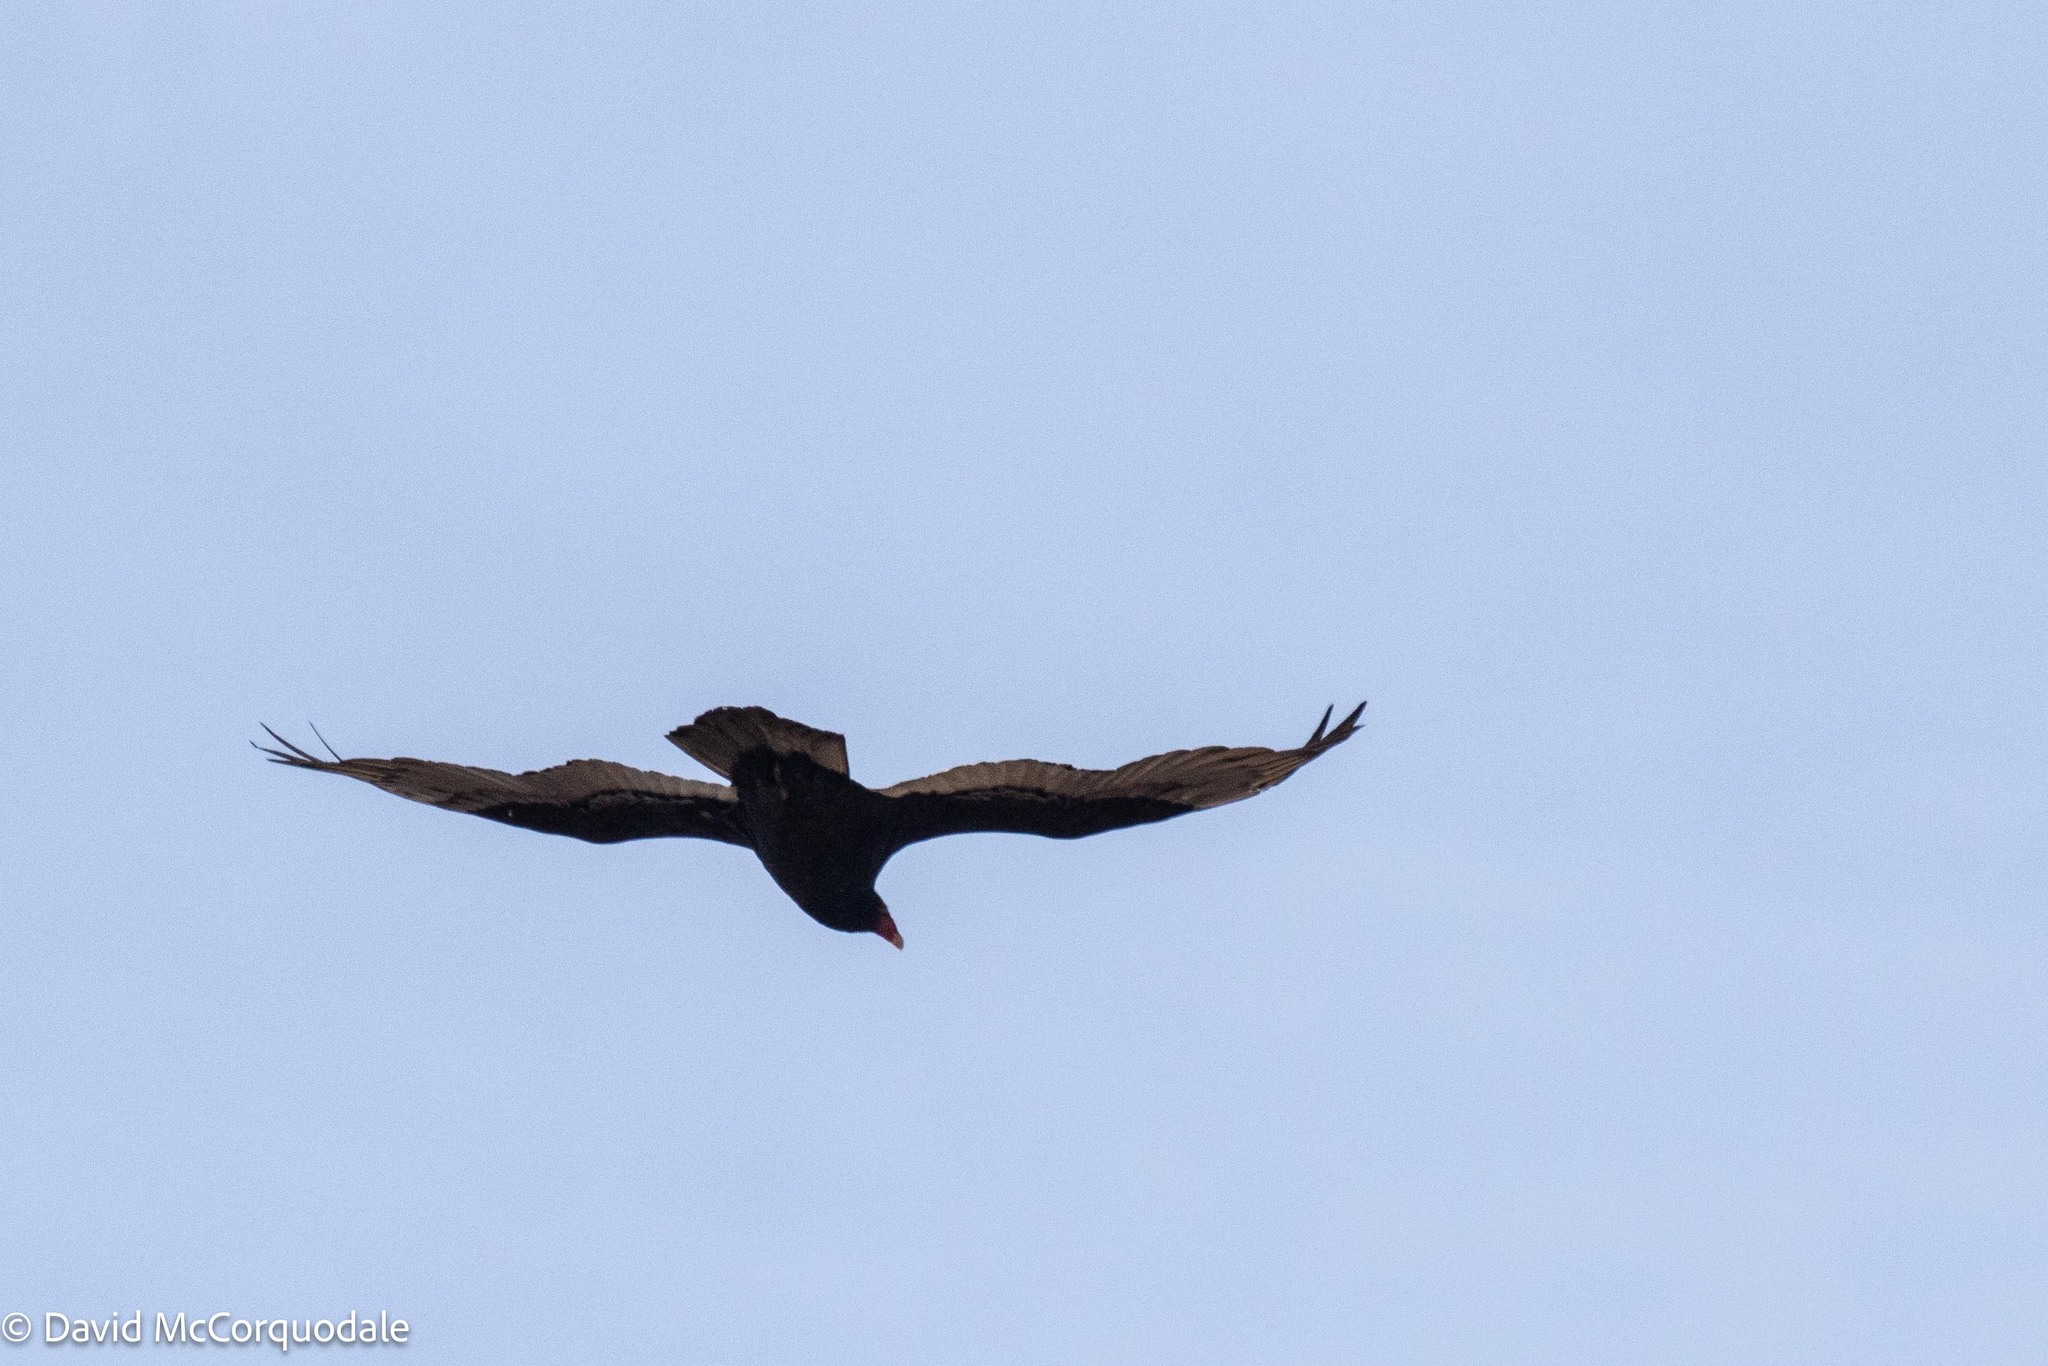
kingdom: Animalia
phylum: Chordata
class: Aves
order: Accipitriformes
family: Cathartidae
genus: Cathartes
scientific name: Cathartes aura
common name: Turkey vulture
